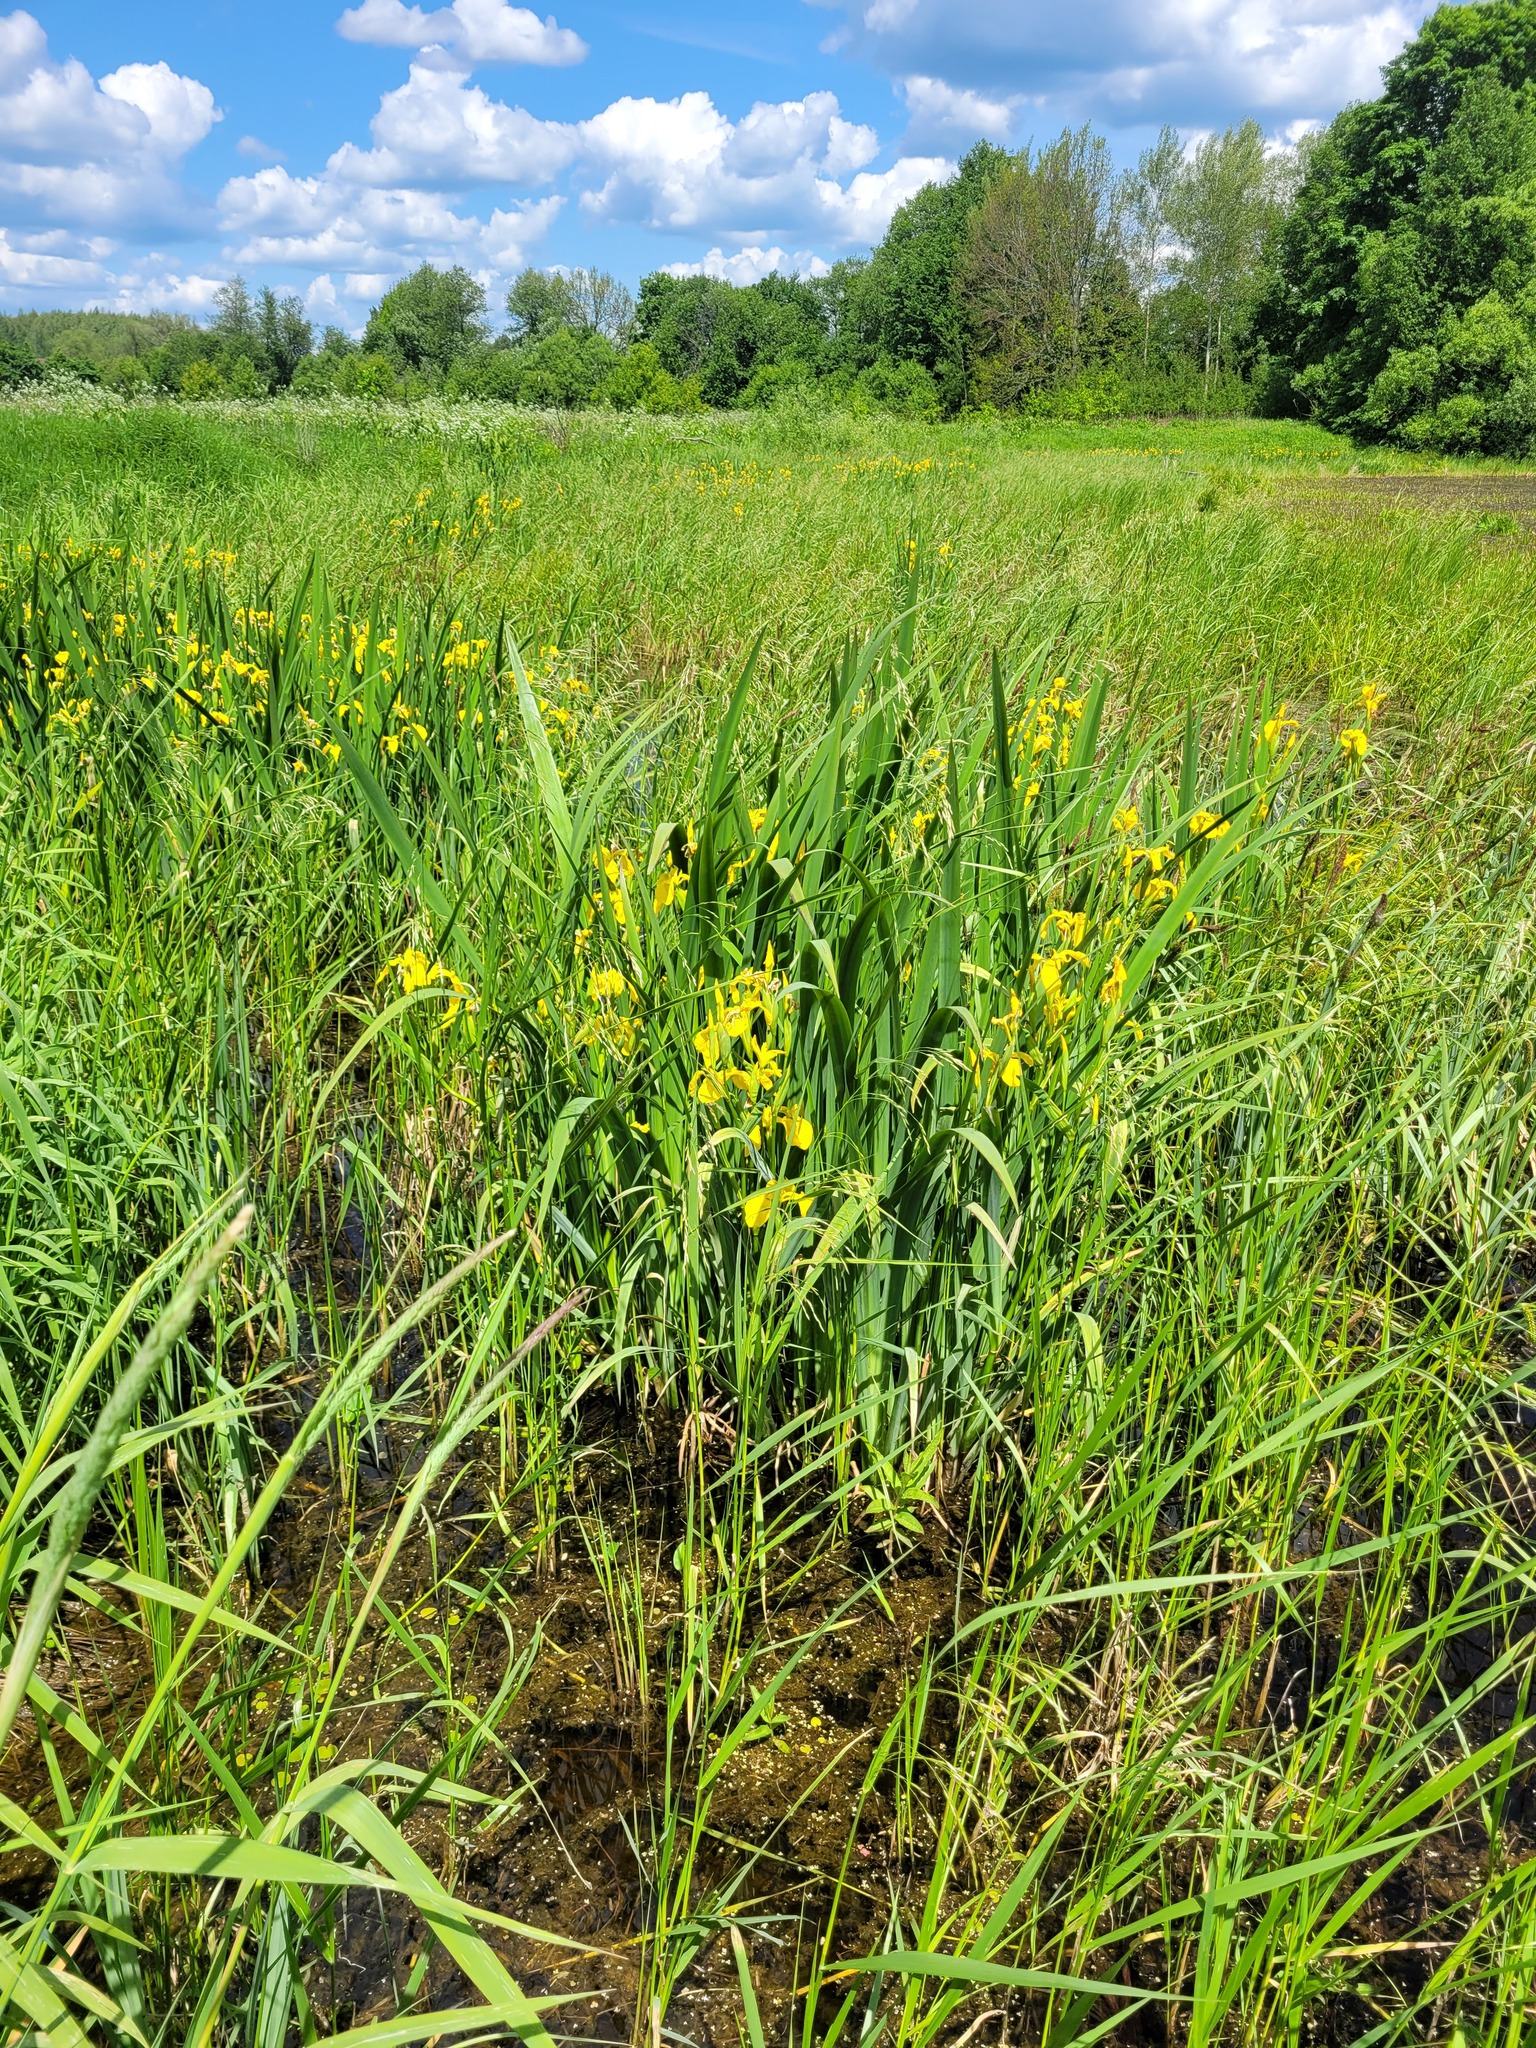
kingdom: Plantae
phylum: Tracheophyta
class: Liliopsida
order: Asparagales
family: Iridaceae
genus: Iris
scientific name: Iris pseudacorus
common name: Yellow flag
